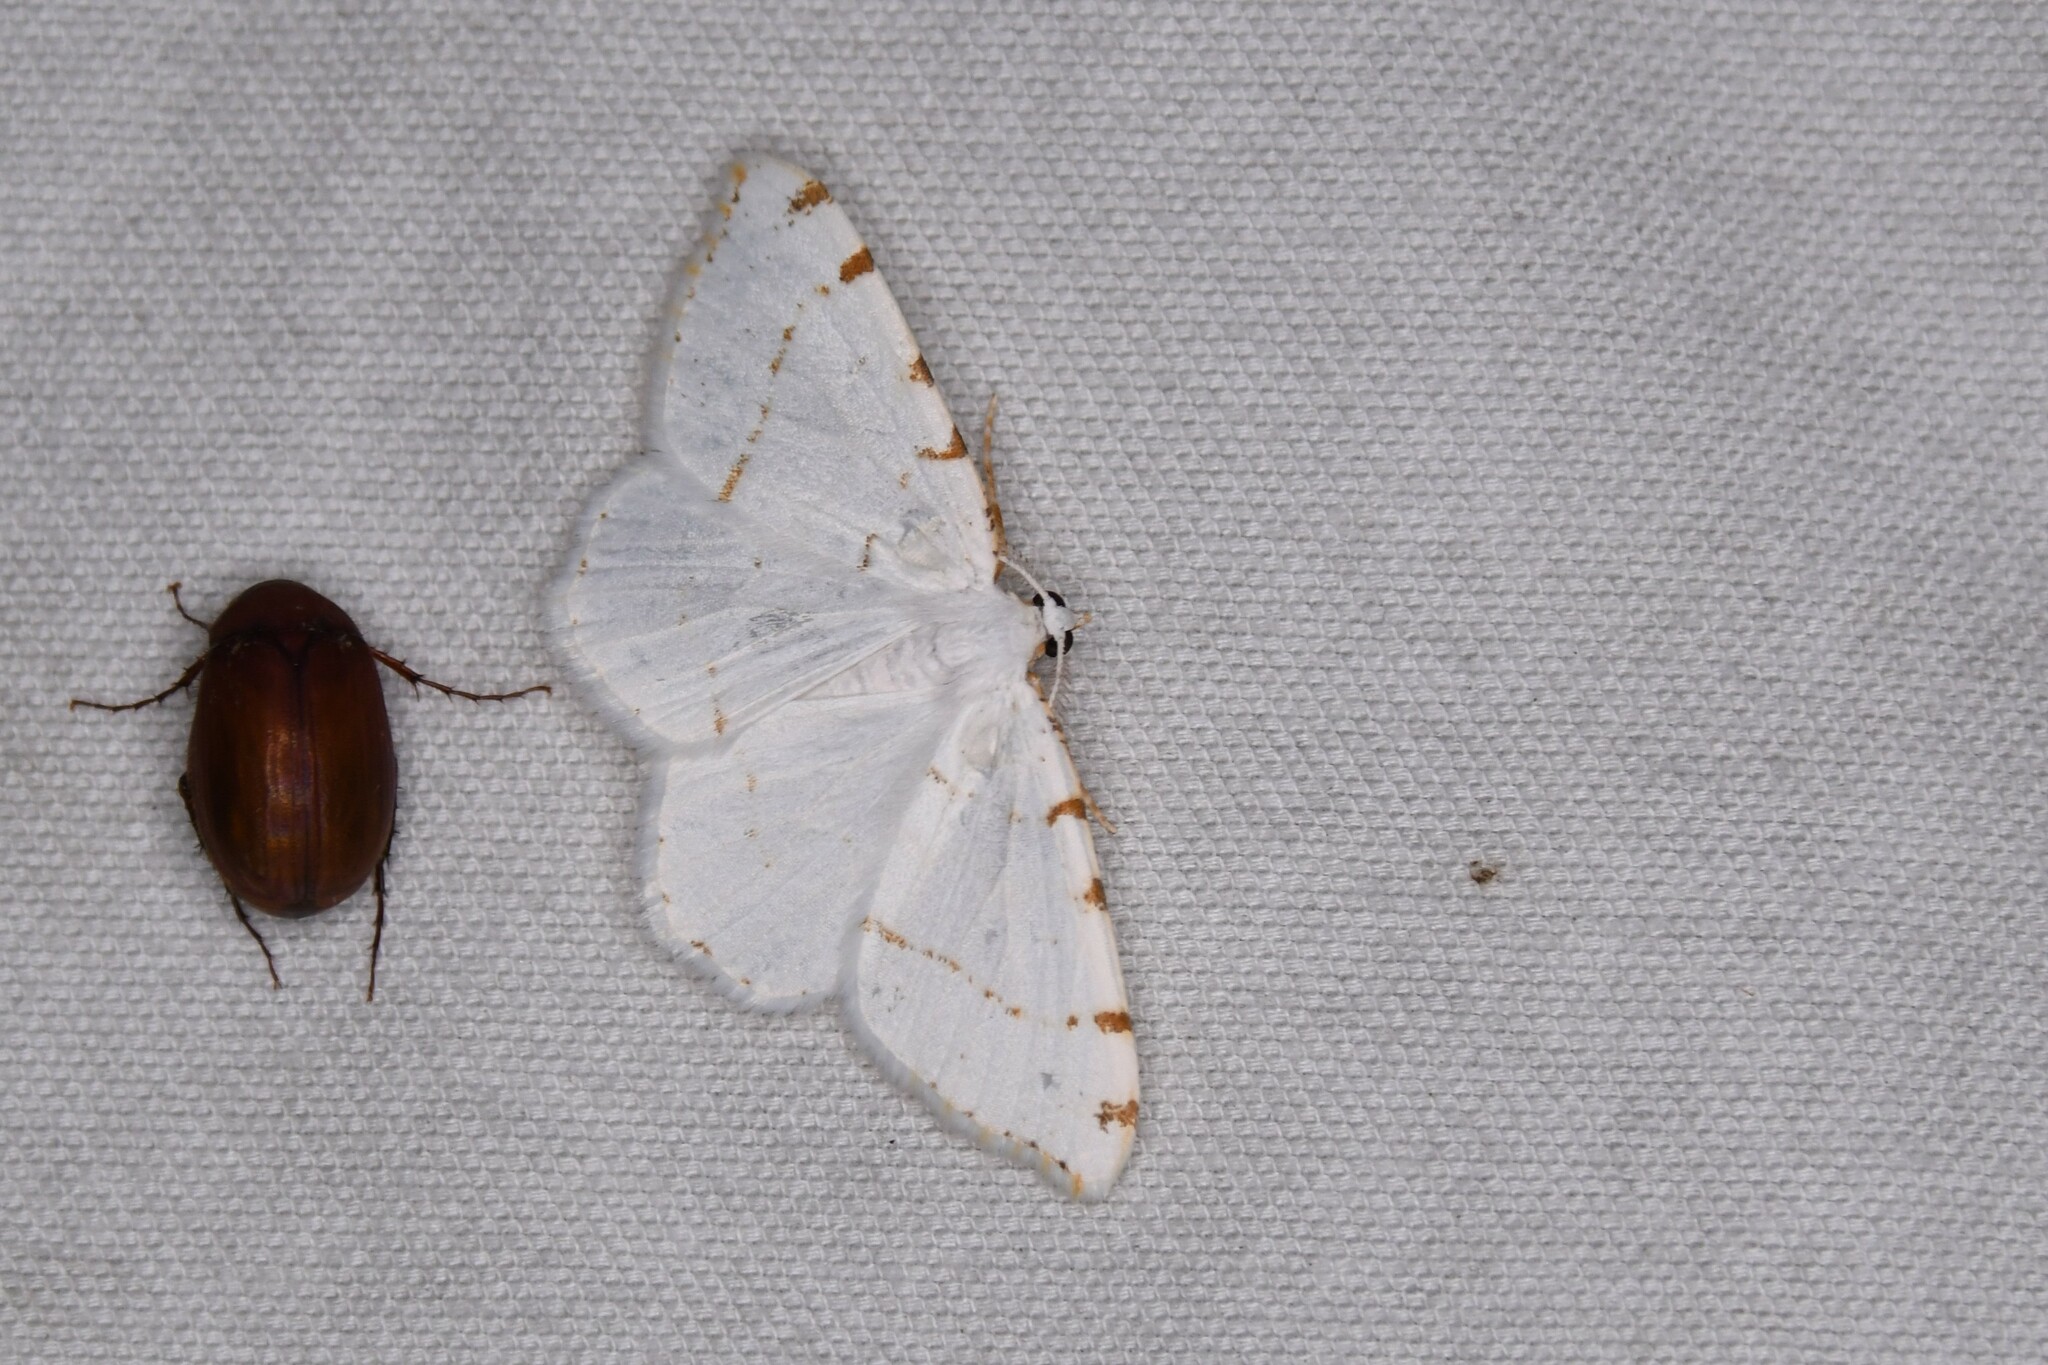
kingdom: Animalia
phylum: Arthropoda
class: Insecta
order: Lepidoptera
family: Geometridae
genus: Macaria
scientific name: Macaria pustularia
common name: Lesser maple spanworm moth
